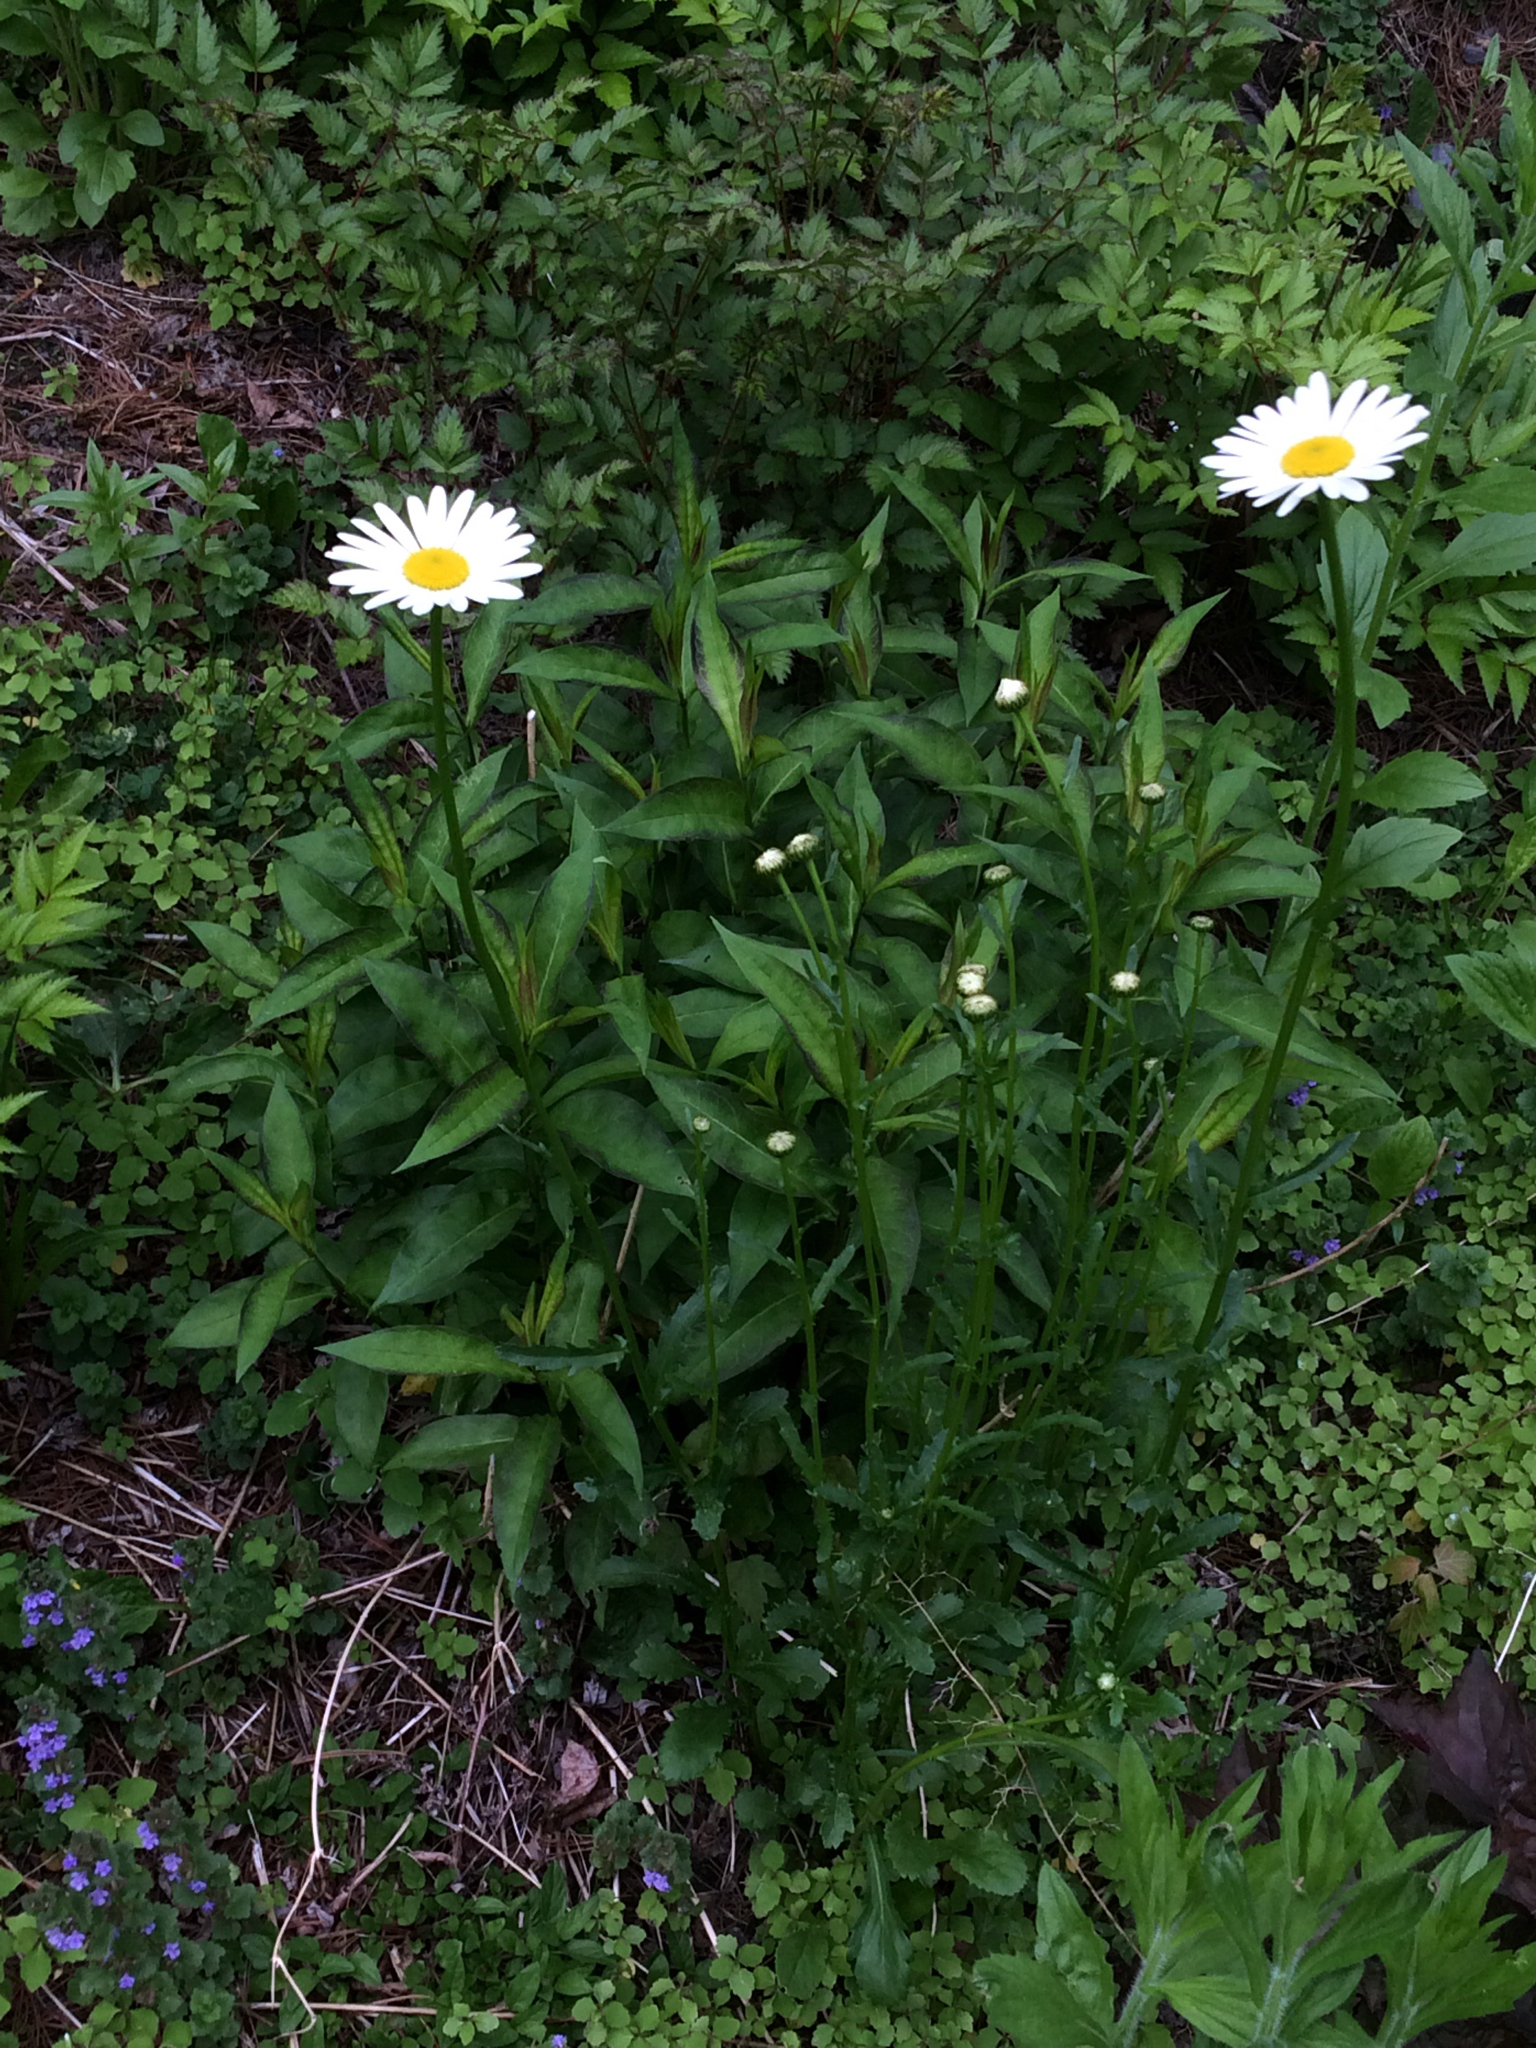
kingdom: Plantae
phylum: Tracheophyta
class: Magnoliopsida
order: Asterales
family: Asteraceae
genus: Leucanthemum
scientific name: Leucanthemum vulgare
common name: Oxeye daisy
